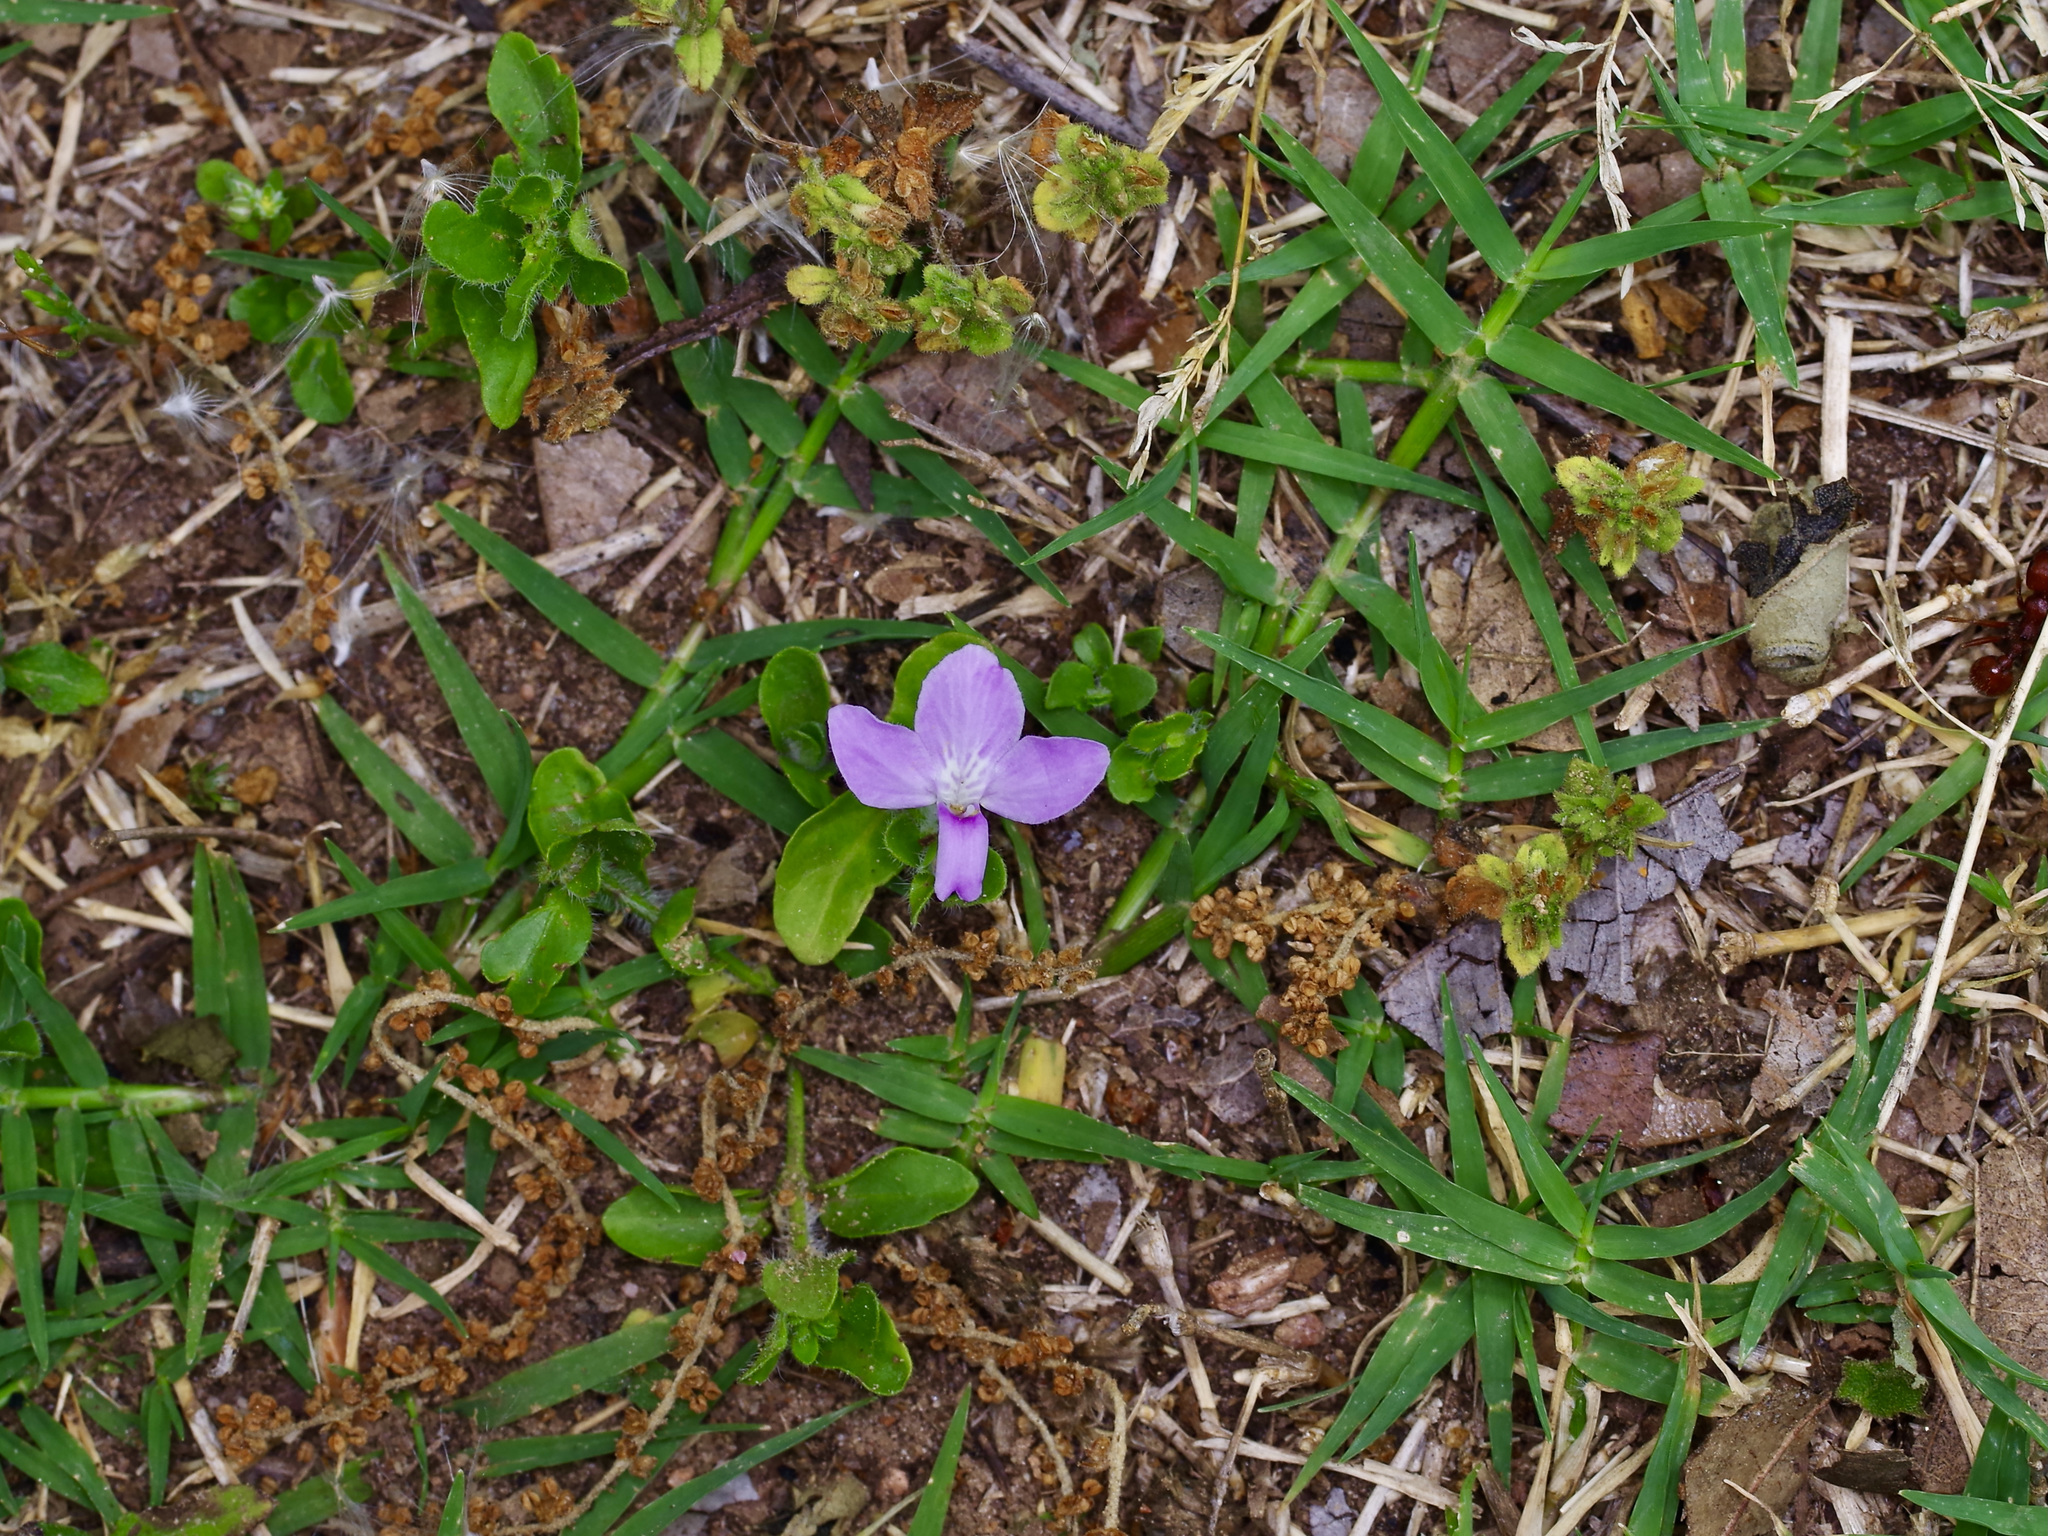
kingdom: Plantae
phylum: Tracheophyta
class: Magnoliopsida
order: Lamiales
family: Acanthaceae
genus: Justicia
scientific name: Justicia pilosella
